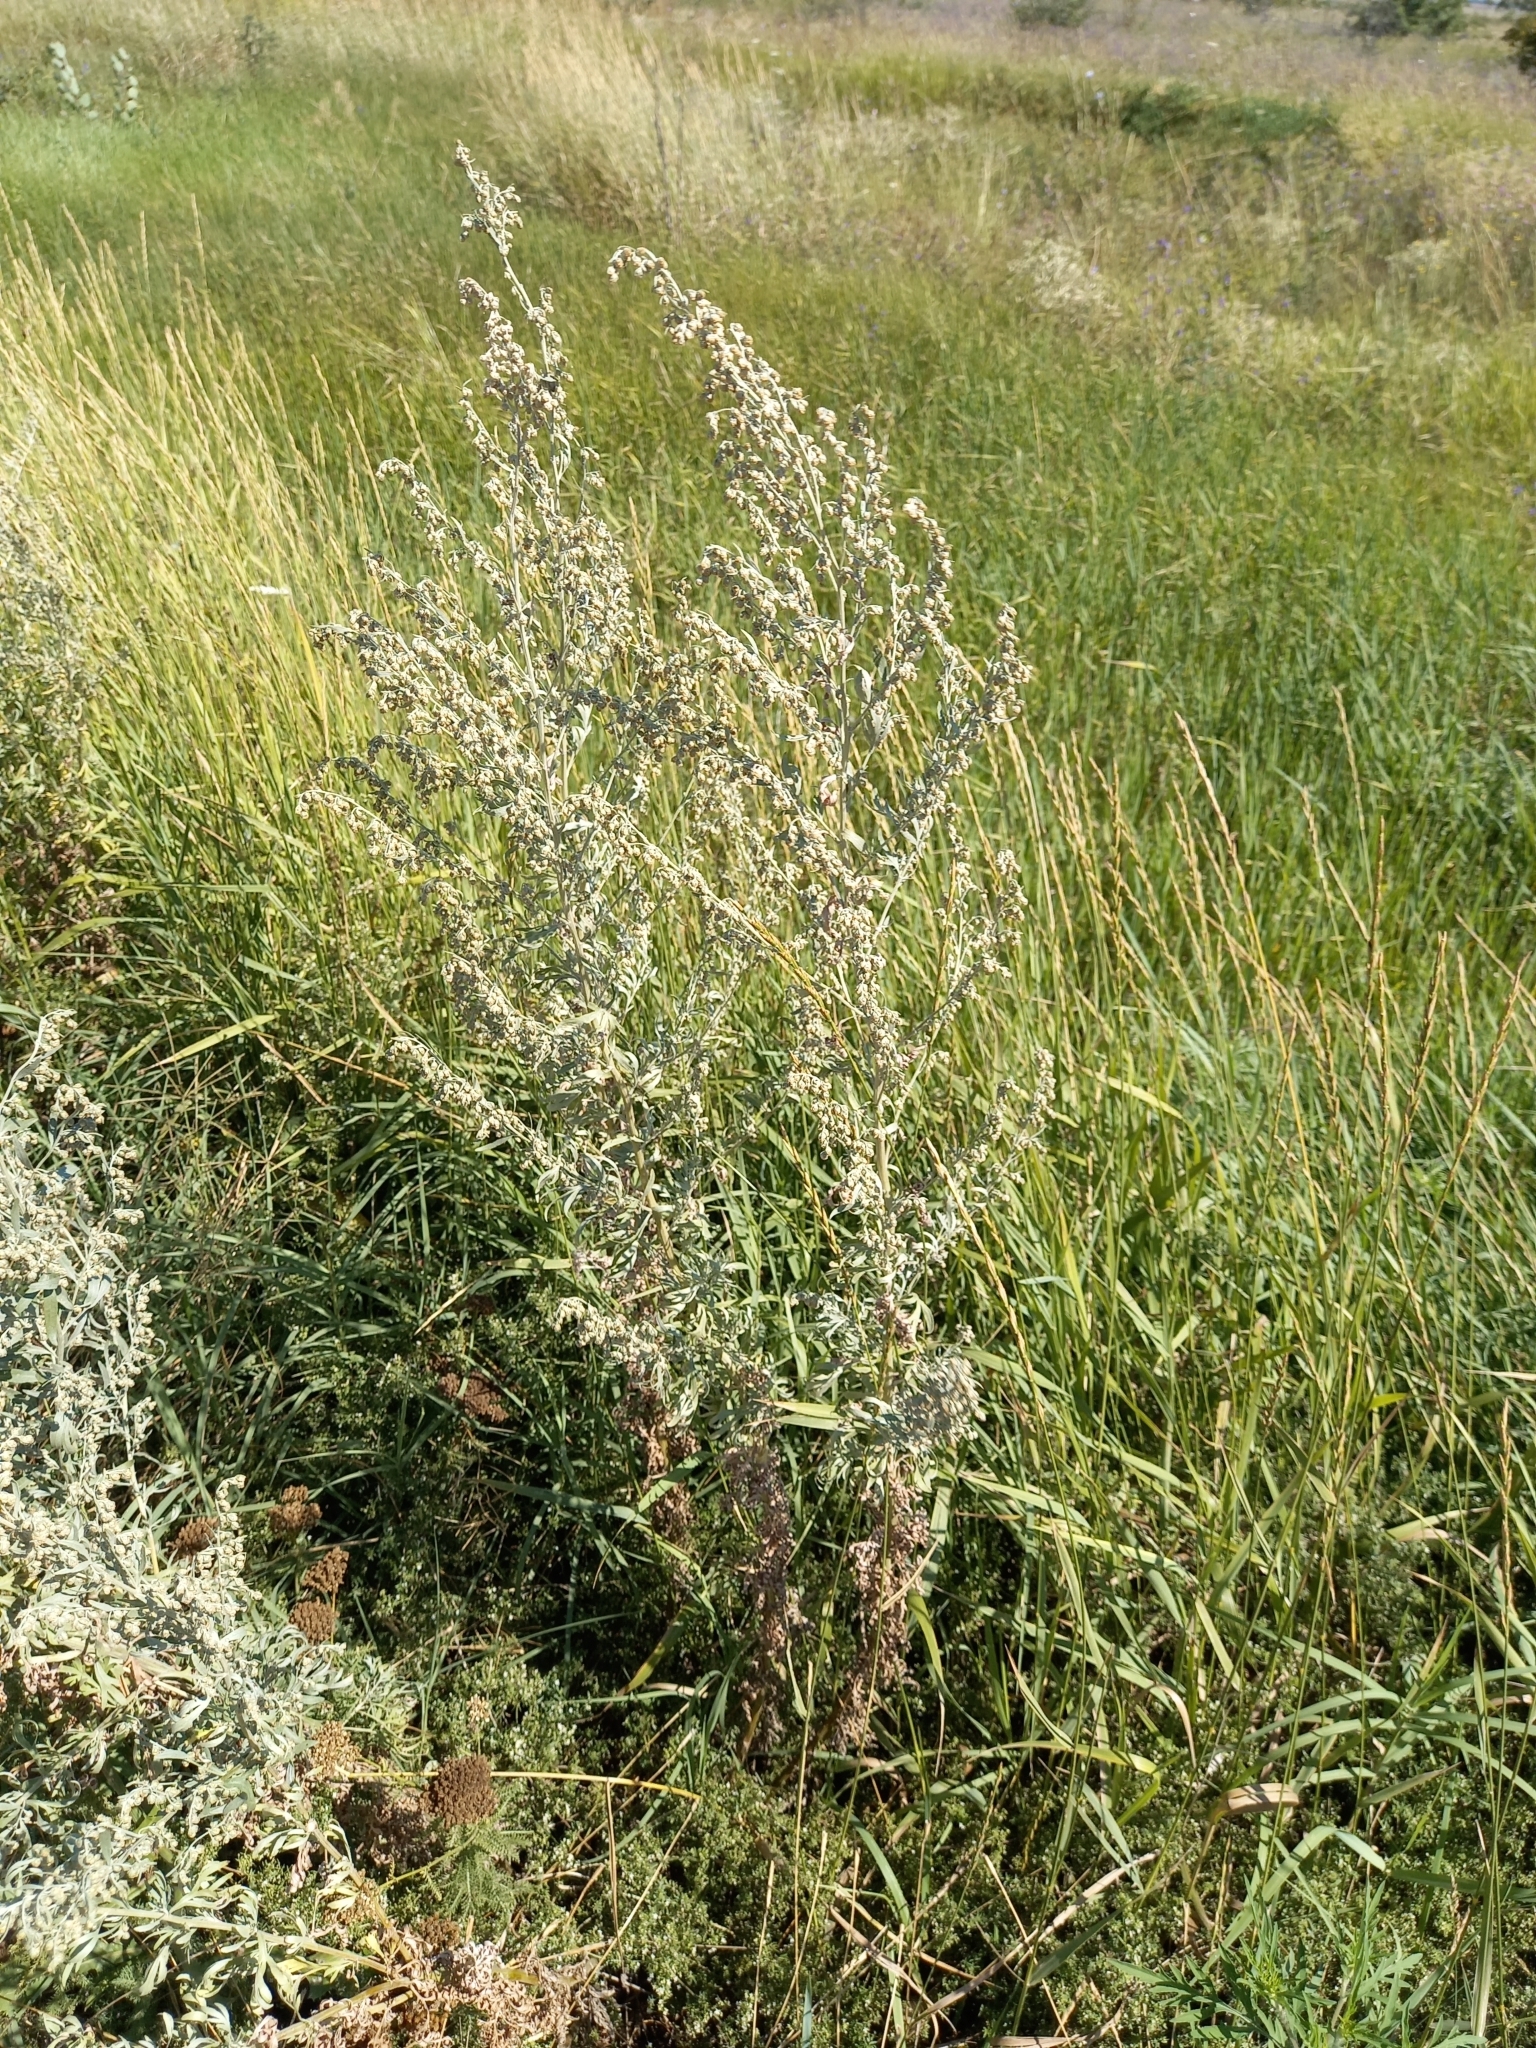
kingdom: Plantae
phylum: Tracheophyta
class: Magnoliopsida
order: Asterales
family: Asteraceae
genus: Artemisia
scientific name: Artemisia absinthium
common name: Wormwood
